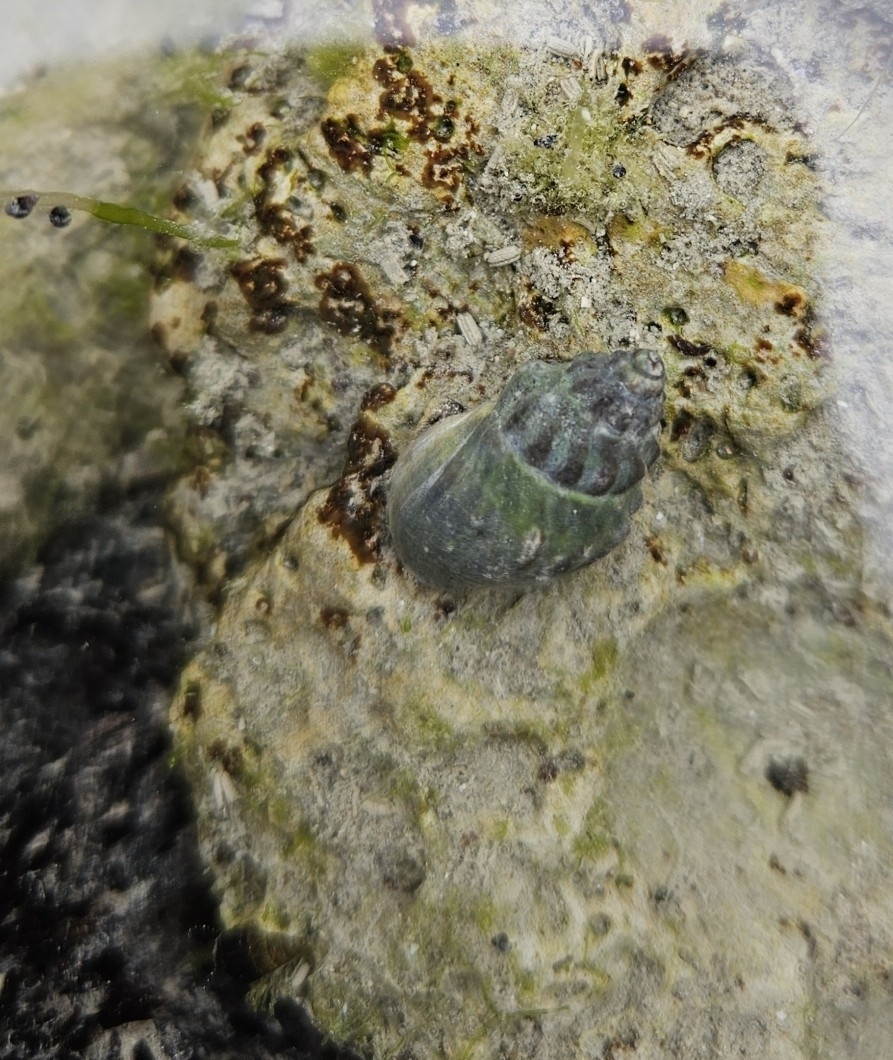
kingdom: Animalia
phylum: Mollusca
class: Gastropoda
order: Neogastropoda
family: Cominellidae
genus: Cominella
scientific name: Cominella glandiformis
